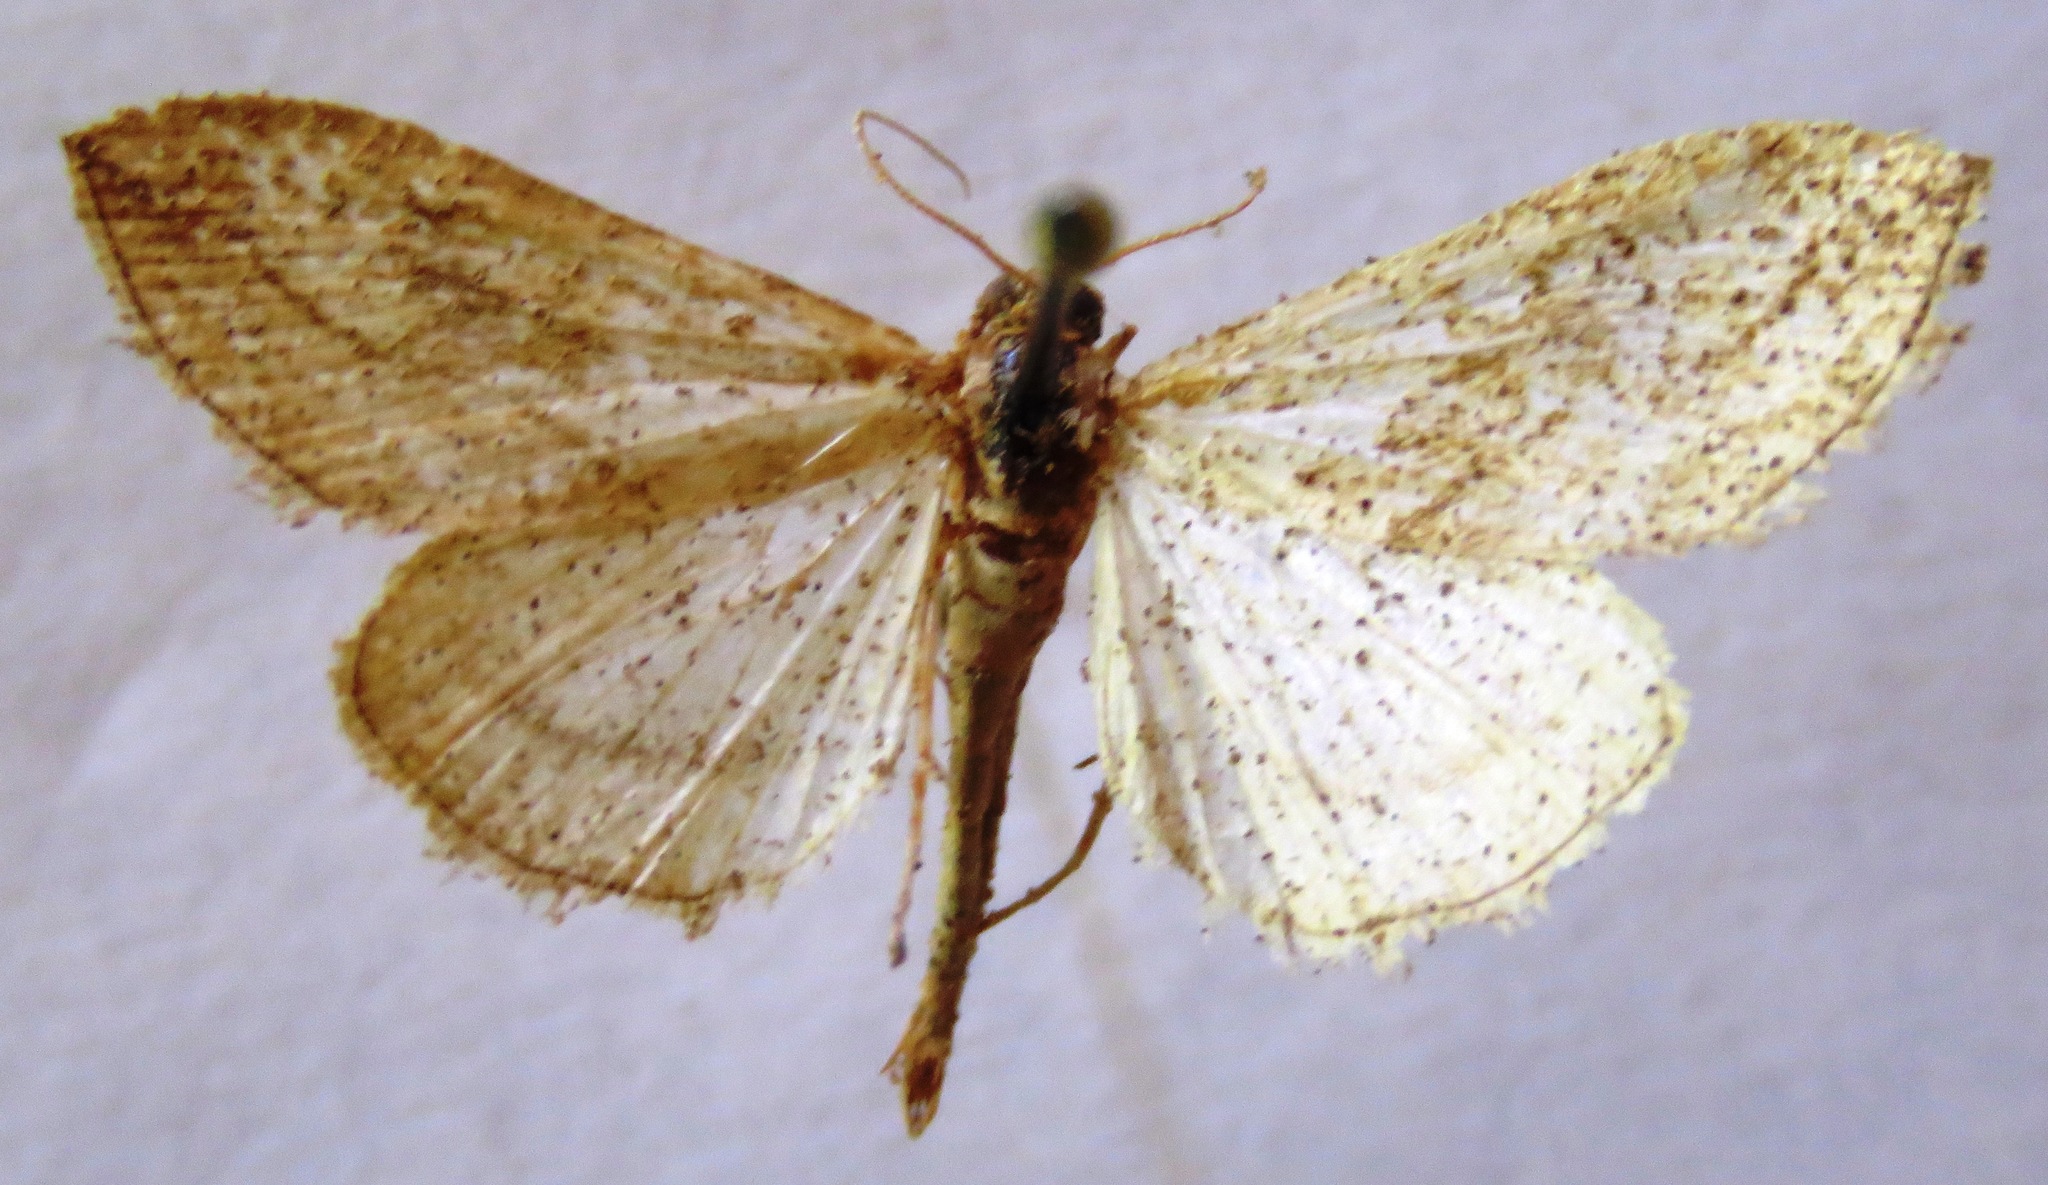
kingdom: Animalia
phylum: Arthropoda
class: Insecta
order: Lepidoptera
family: Crambidae
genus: Evergestis
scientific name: Evergestis forficalis
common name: Garden pebble
